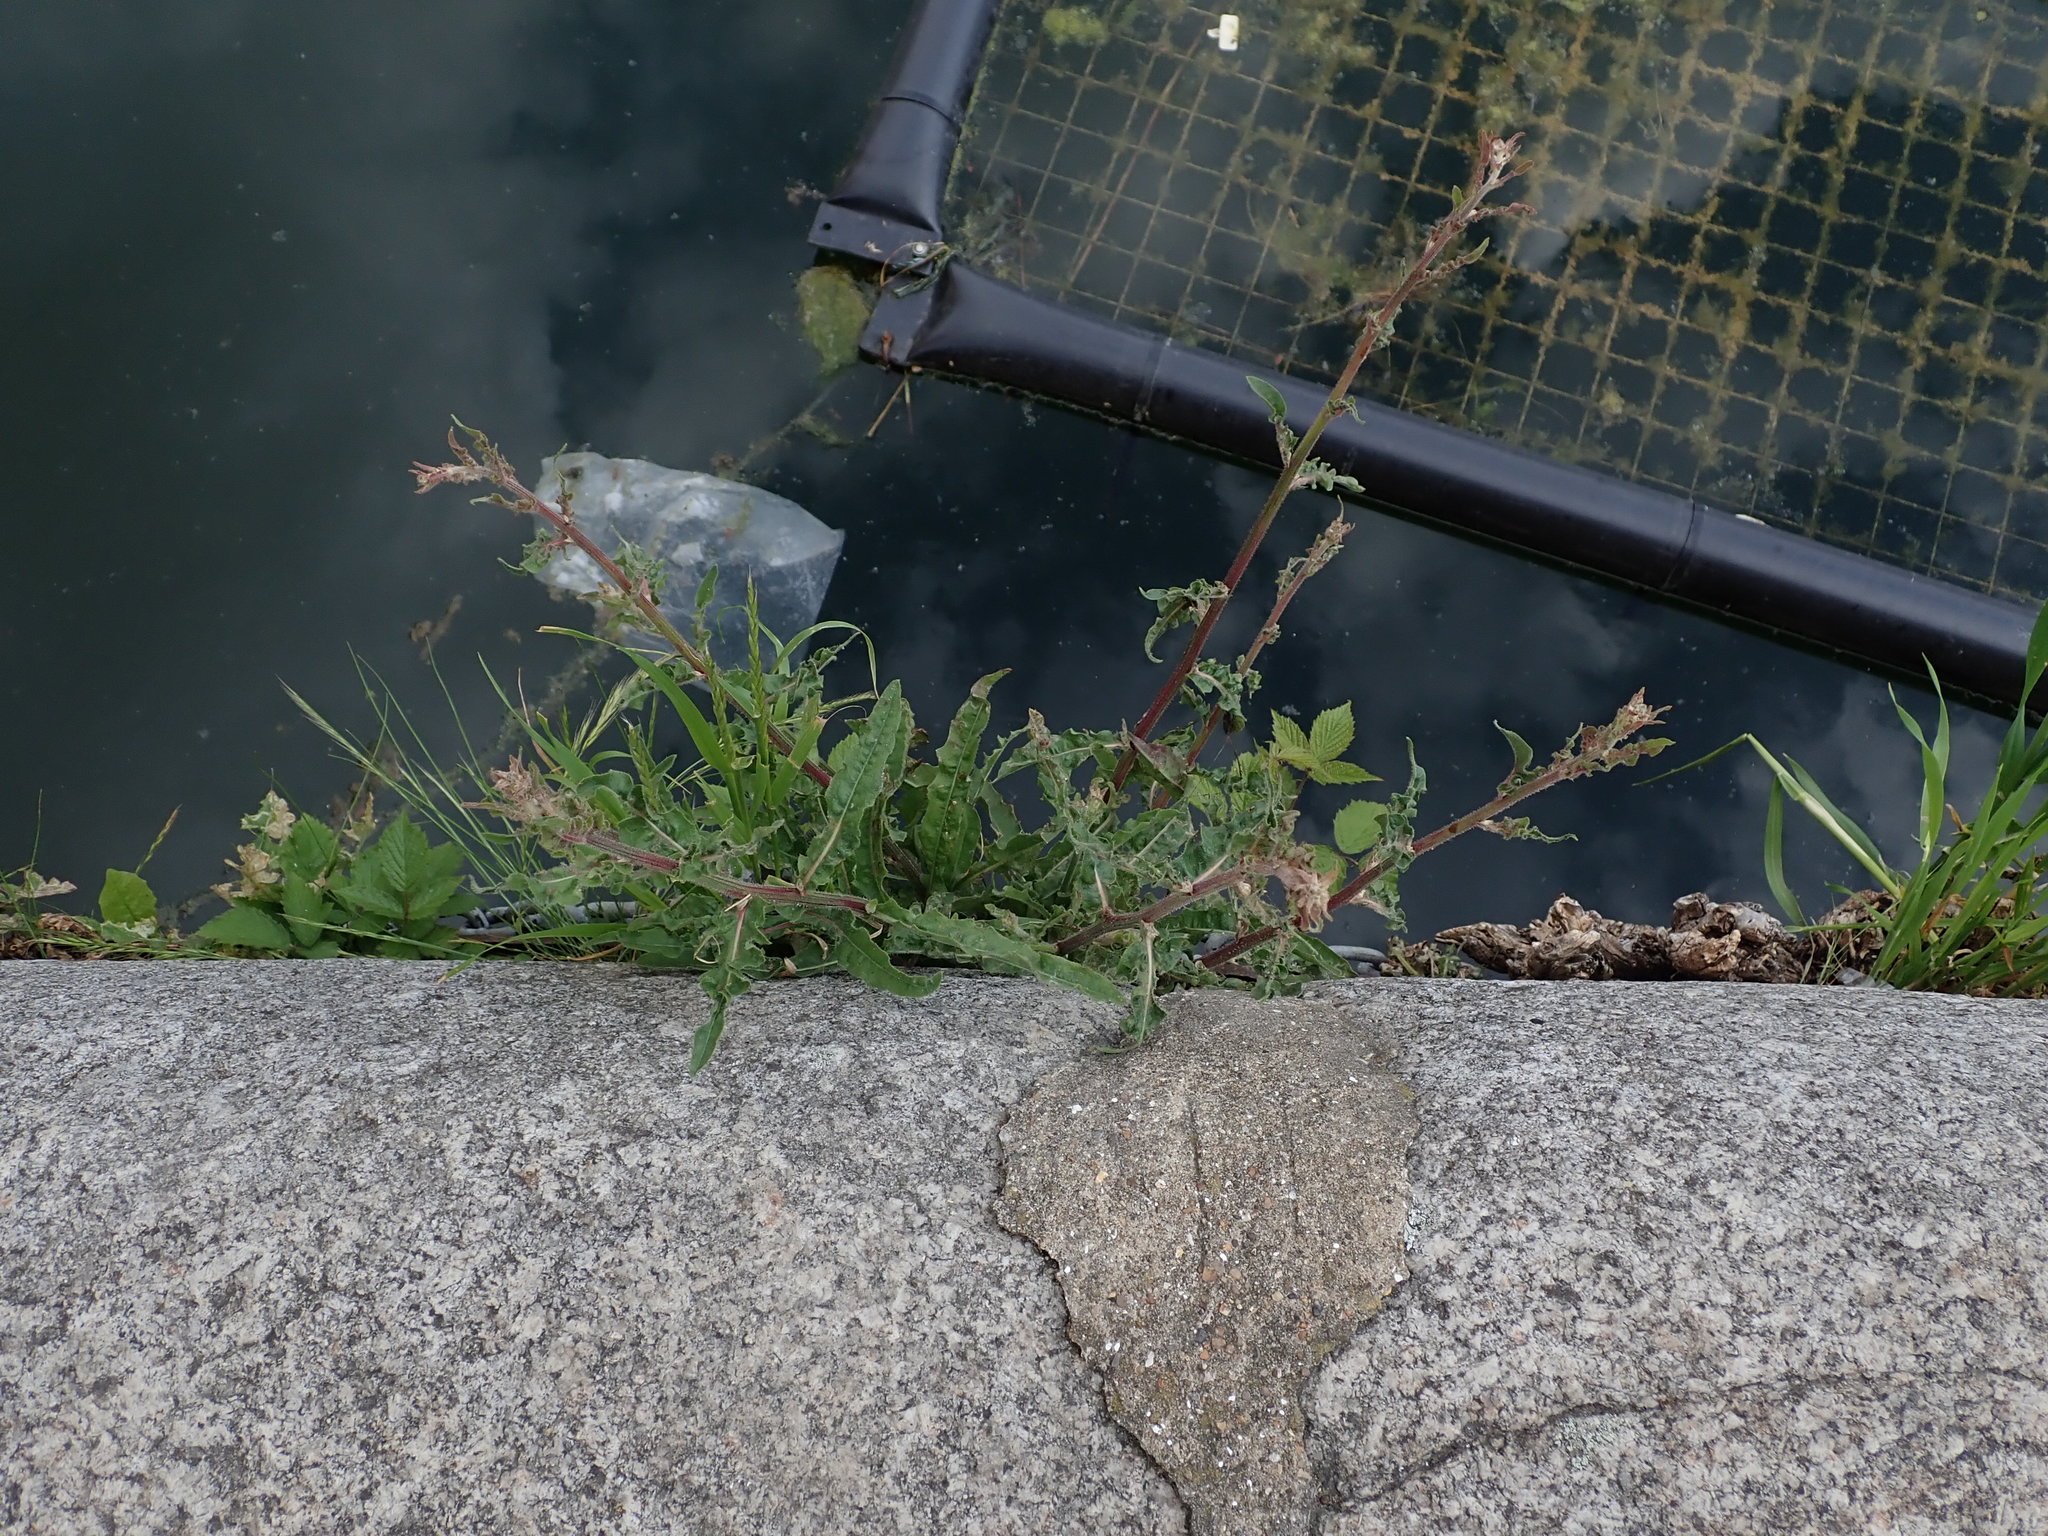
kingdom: Plantae
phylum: Tracheophyta
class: Magnoliopsida
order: Asterales
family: Asteraceae
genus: Picris
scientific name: Picris hieracioides
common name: Hawkweed oxtongue
